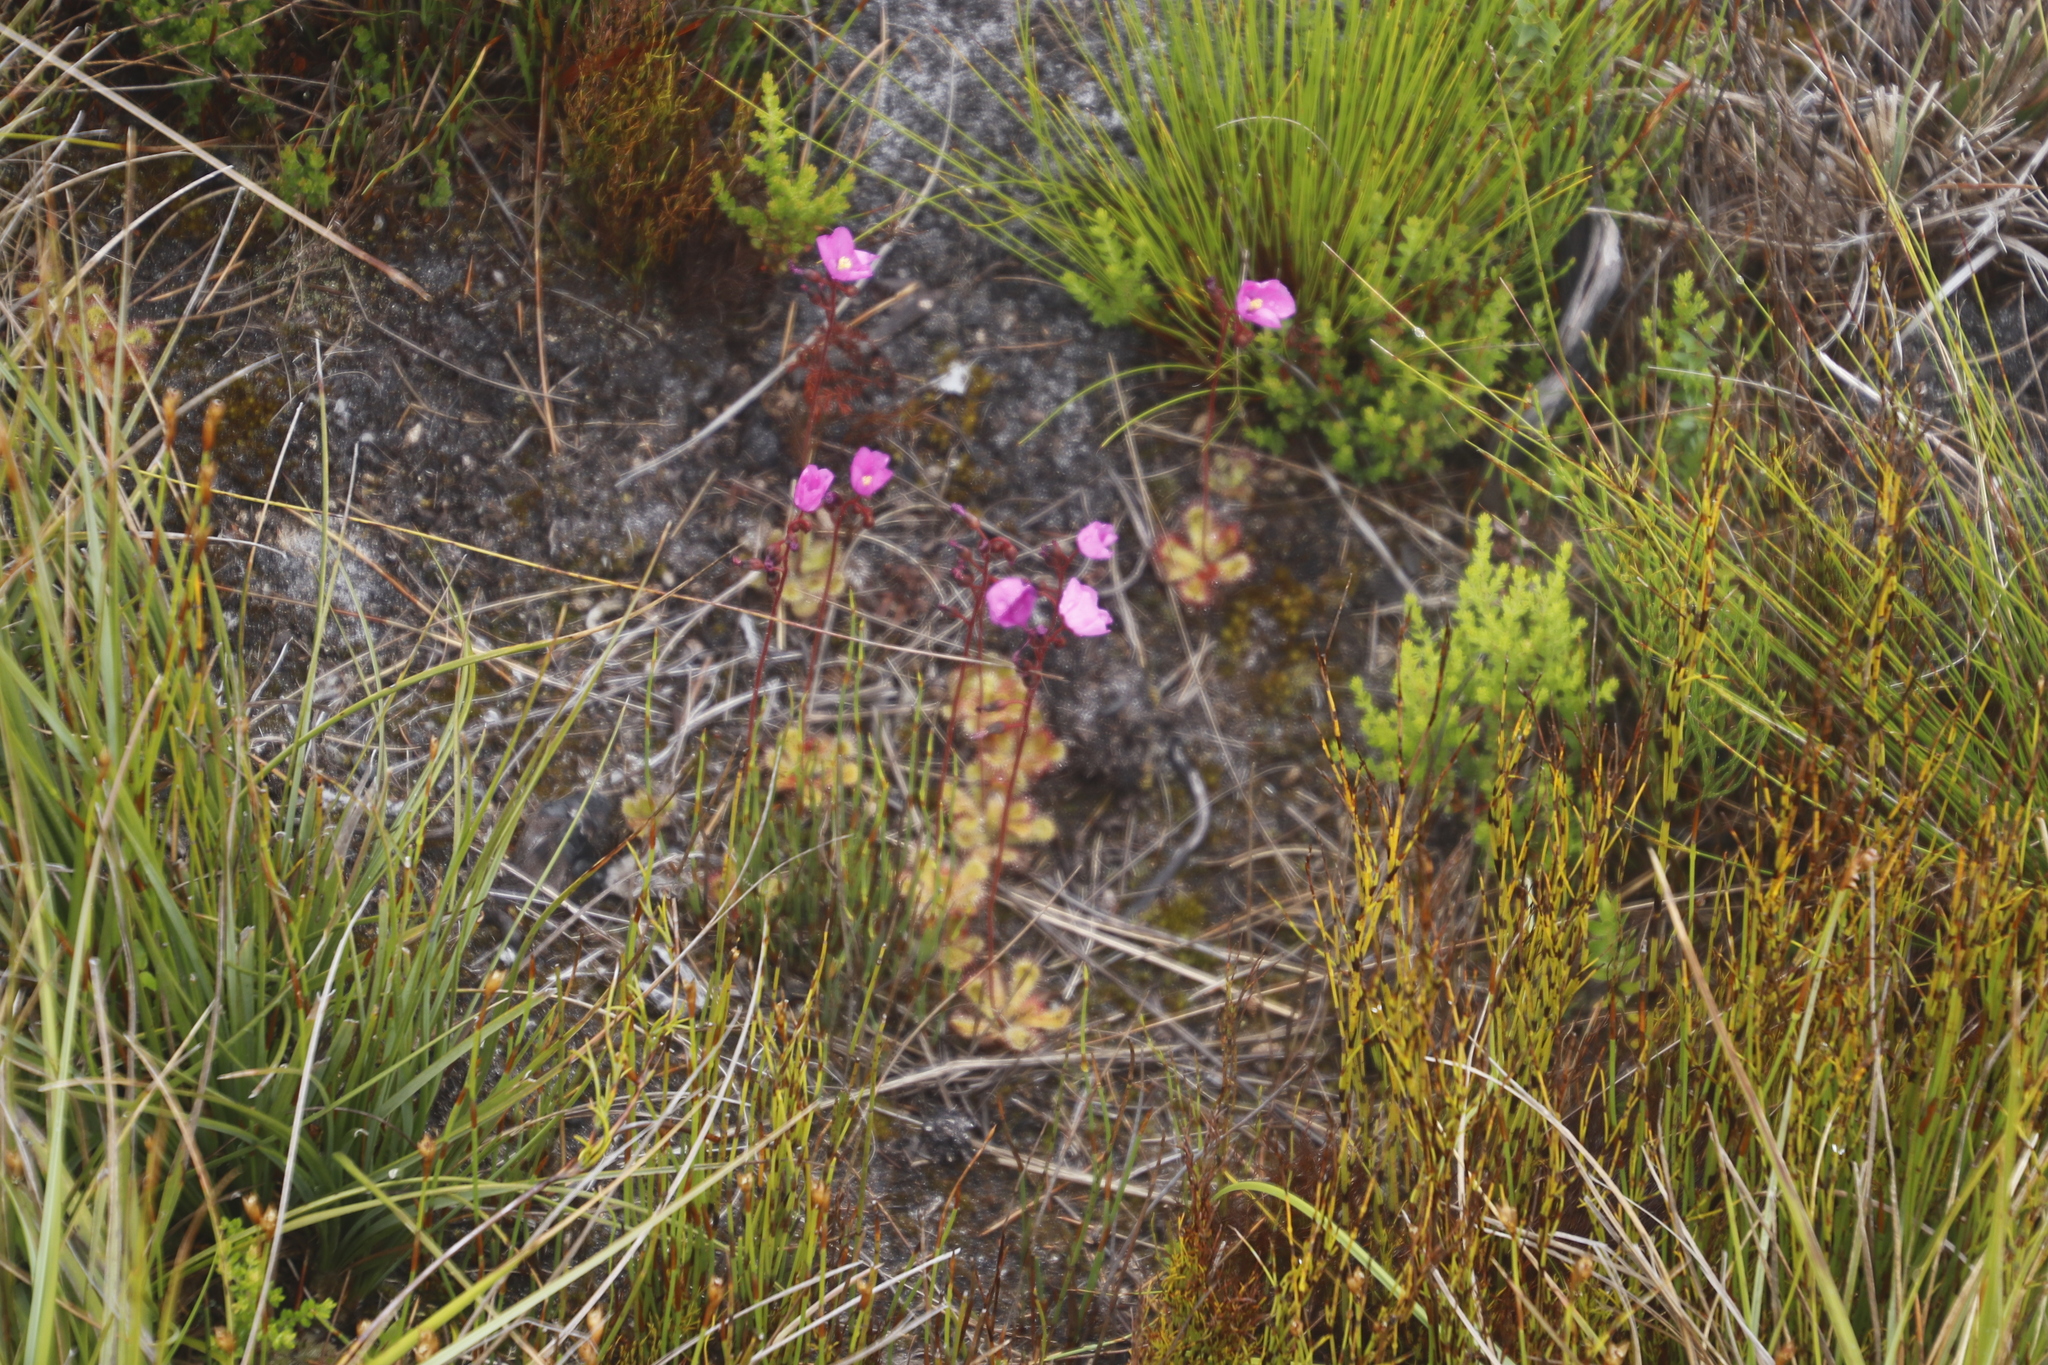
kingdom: Plantae
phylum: Tracheophyta
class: Magnoliopsida
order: Caryophyllales
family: Droseraceae
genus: Drosera
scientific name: Drosera cuneifolia
